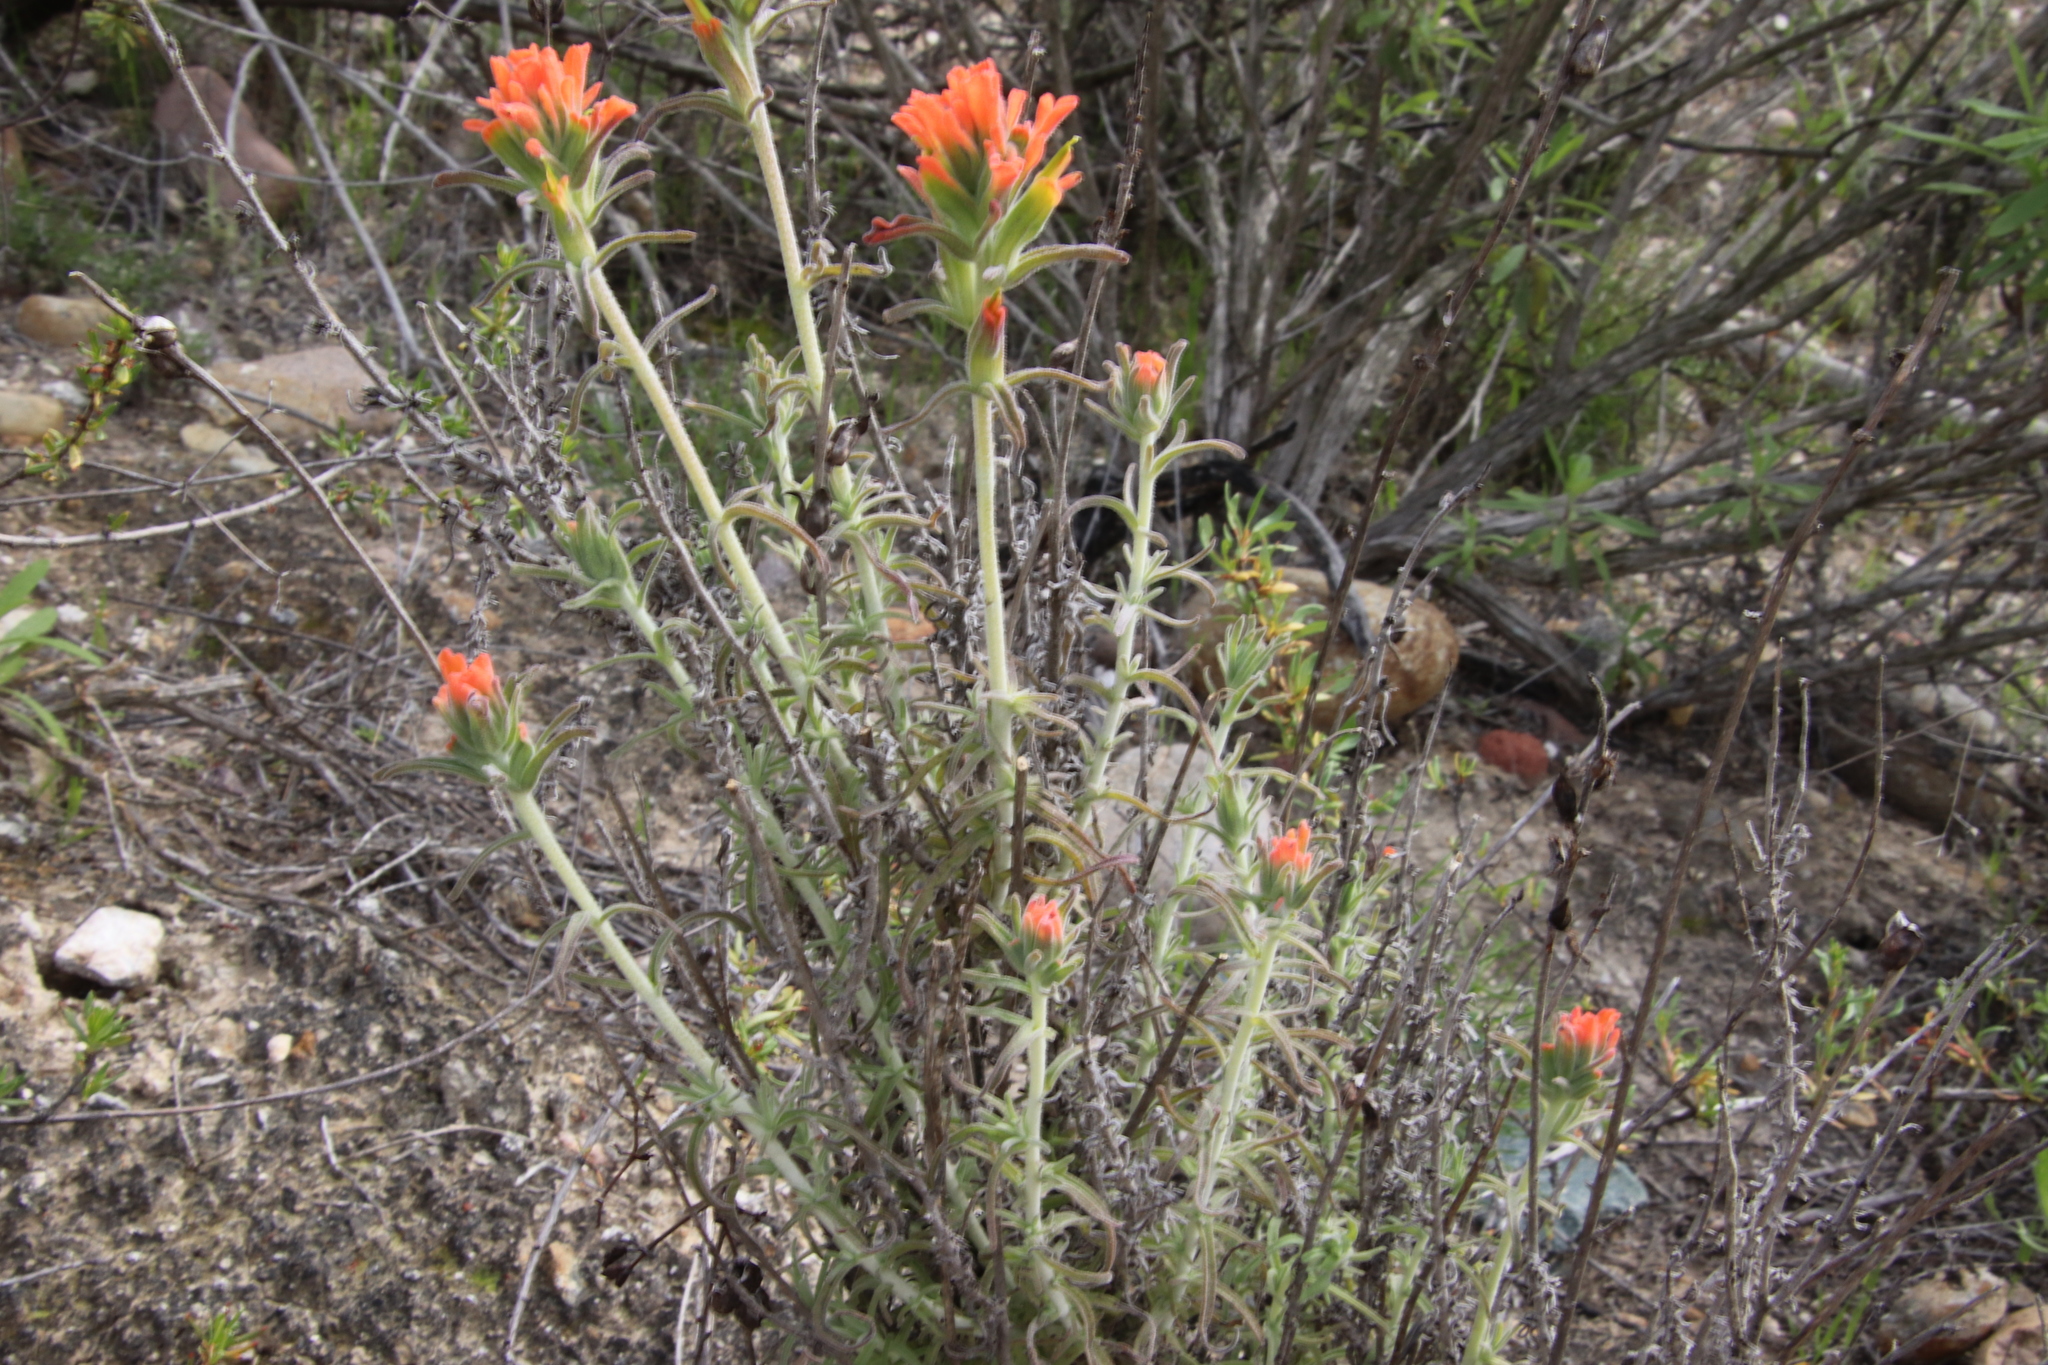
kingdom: Plantae
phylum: Tracheophyta
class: Magnoliopsida
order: Lamiales
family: Orobanchaceae
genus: Castilleja
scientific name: Castilleja foliolosa
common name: Woolly indian paintbrush
